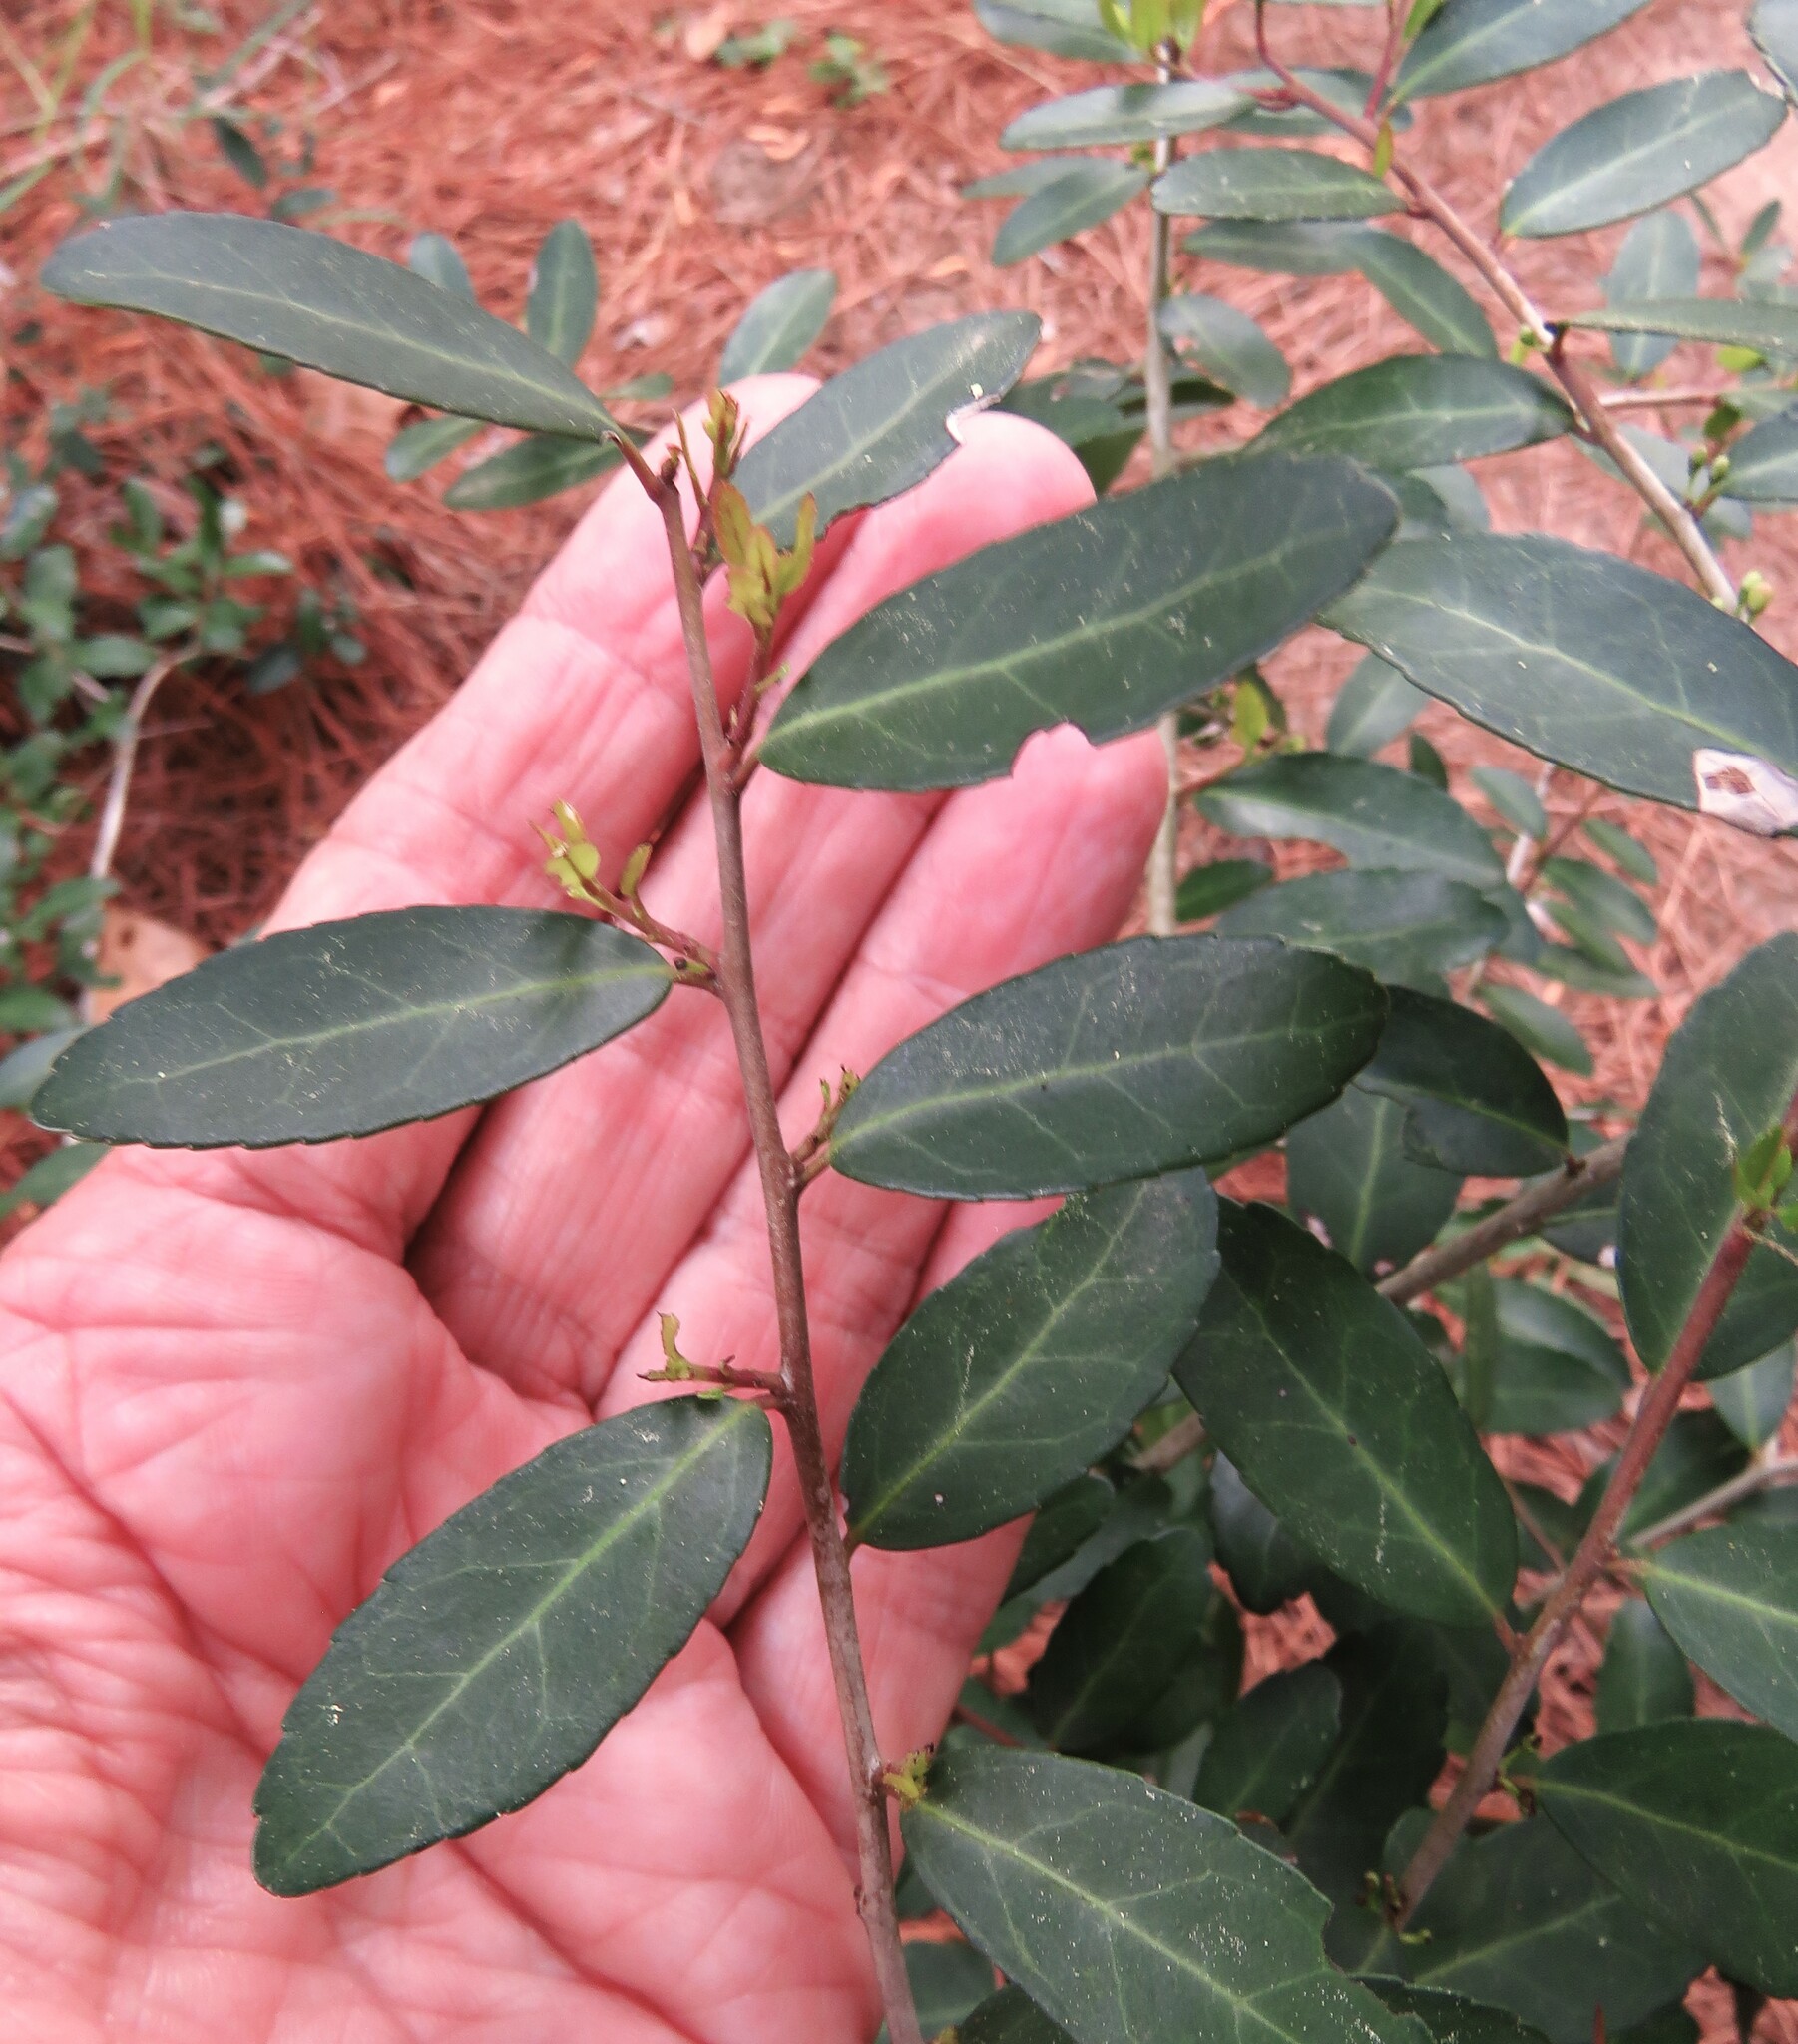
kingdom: Plantae
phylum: Tracheophyta
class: Magnoliopsida
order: Aquifoliales
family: Aquifoliaceae
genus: Ilex
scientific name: Ilex vomitoria
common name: Yaupon holly
